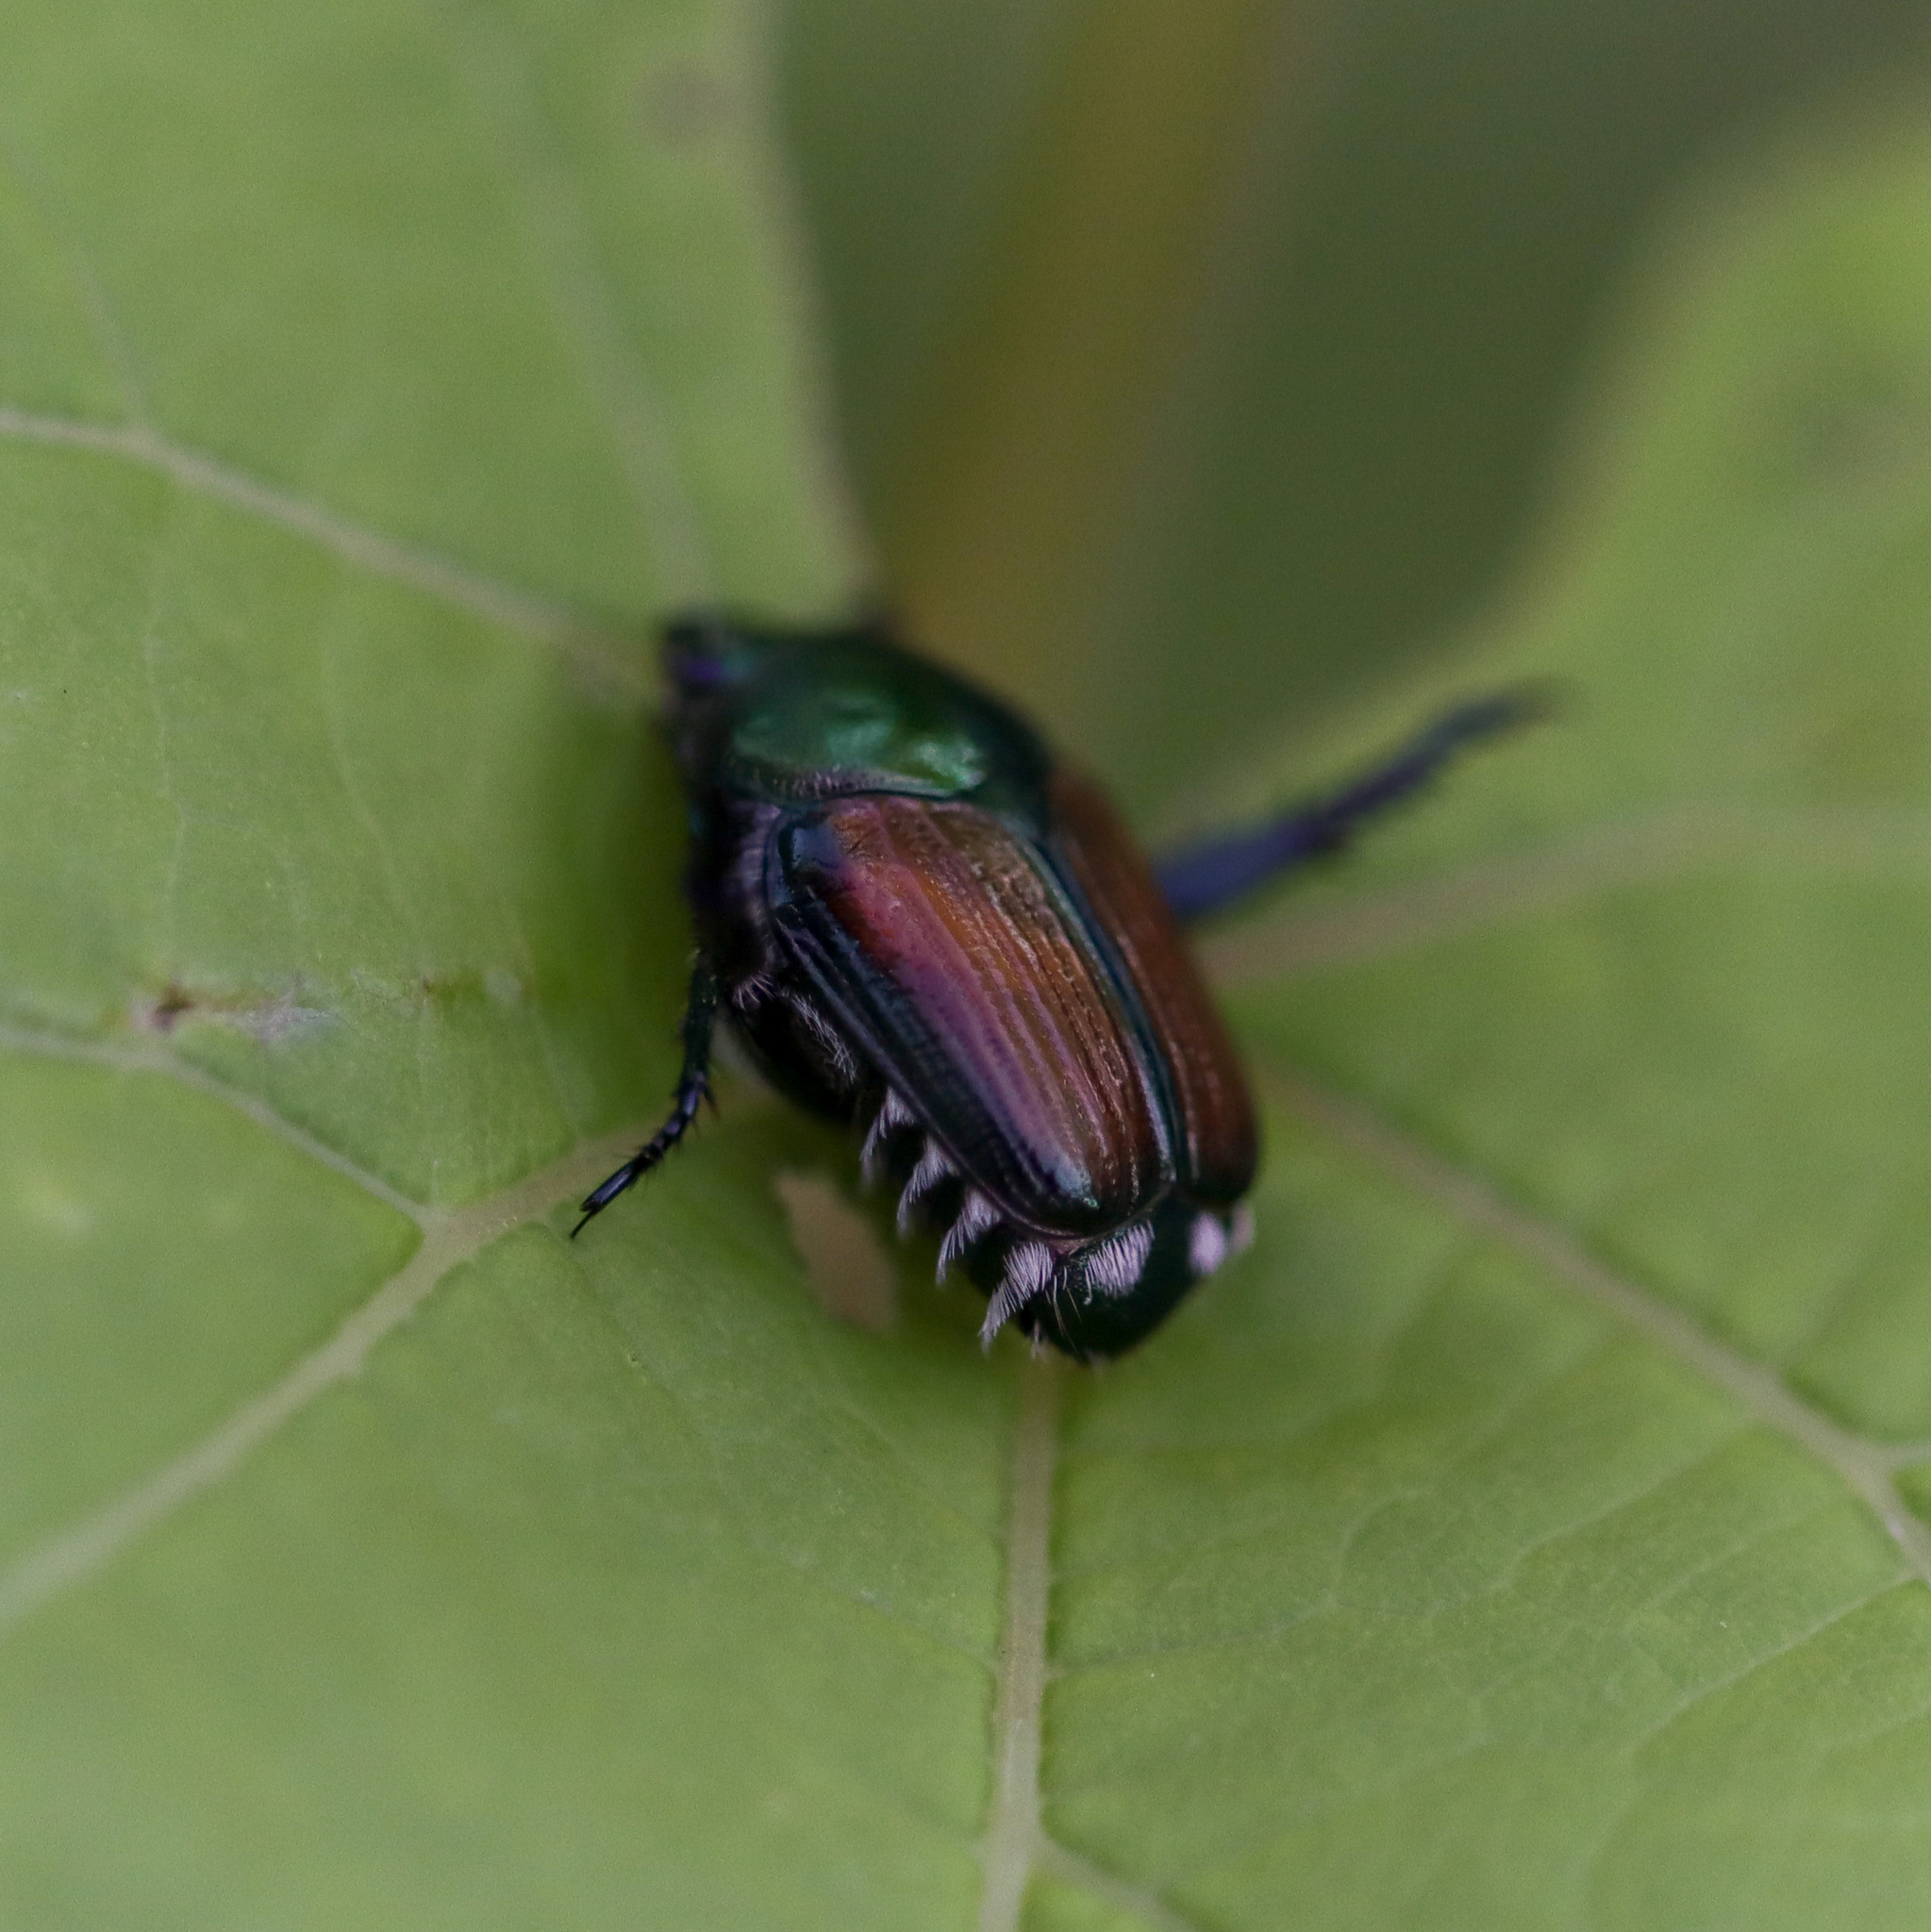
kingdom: Animalia
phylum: Arthropoda
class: Insecta
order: Coleoptera
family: Scarabaeidae
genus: Popillia
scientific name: Popillia japonica
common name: Japanese beetle
